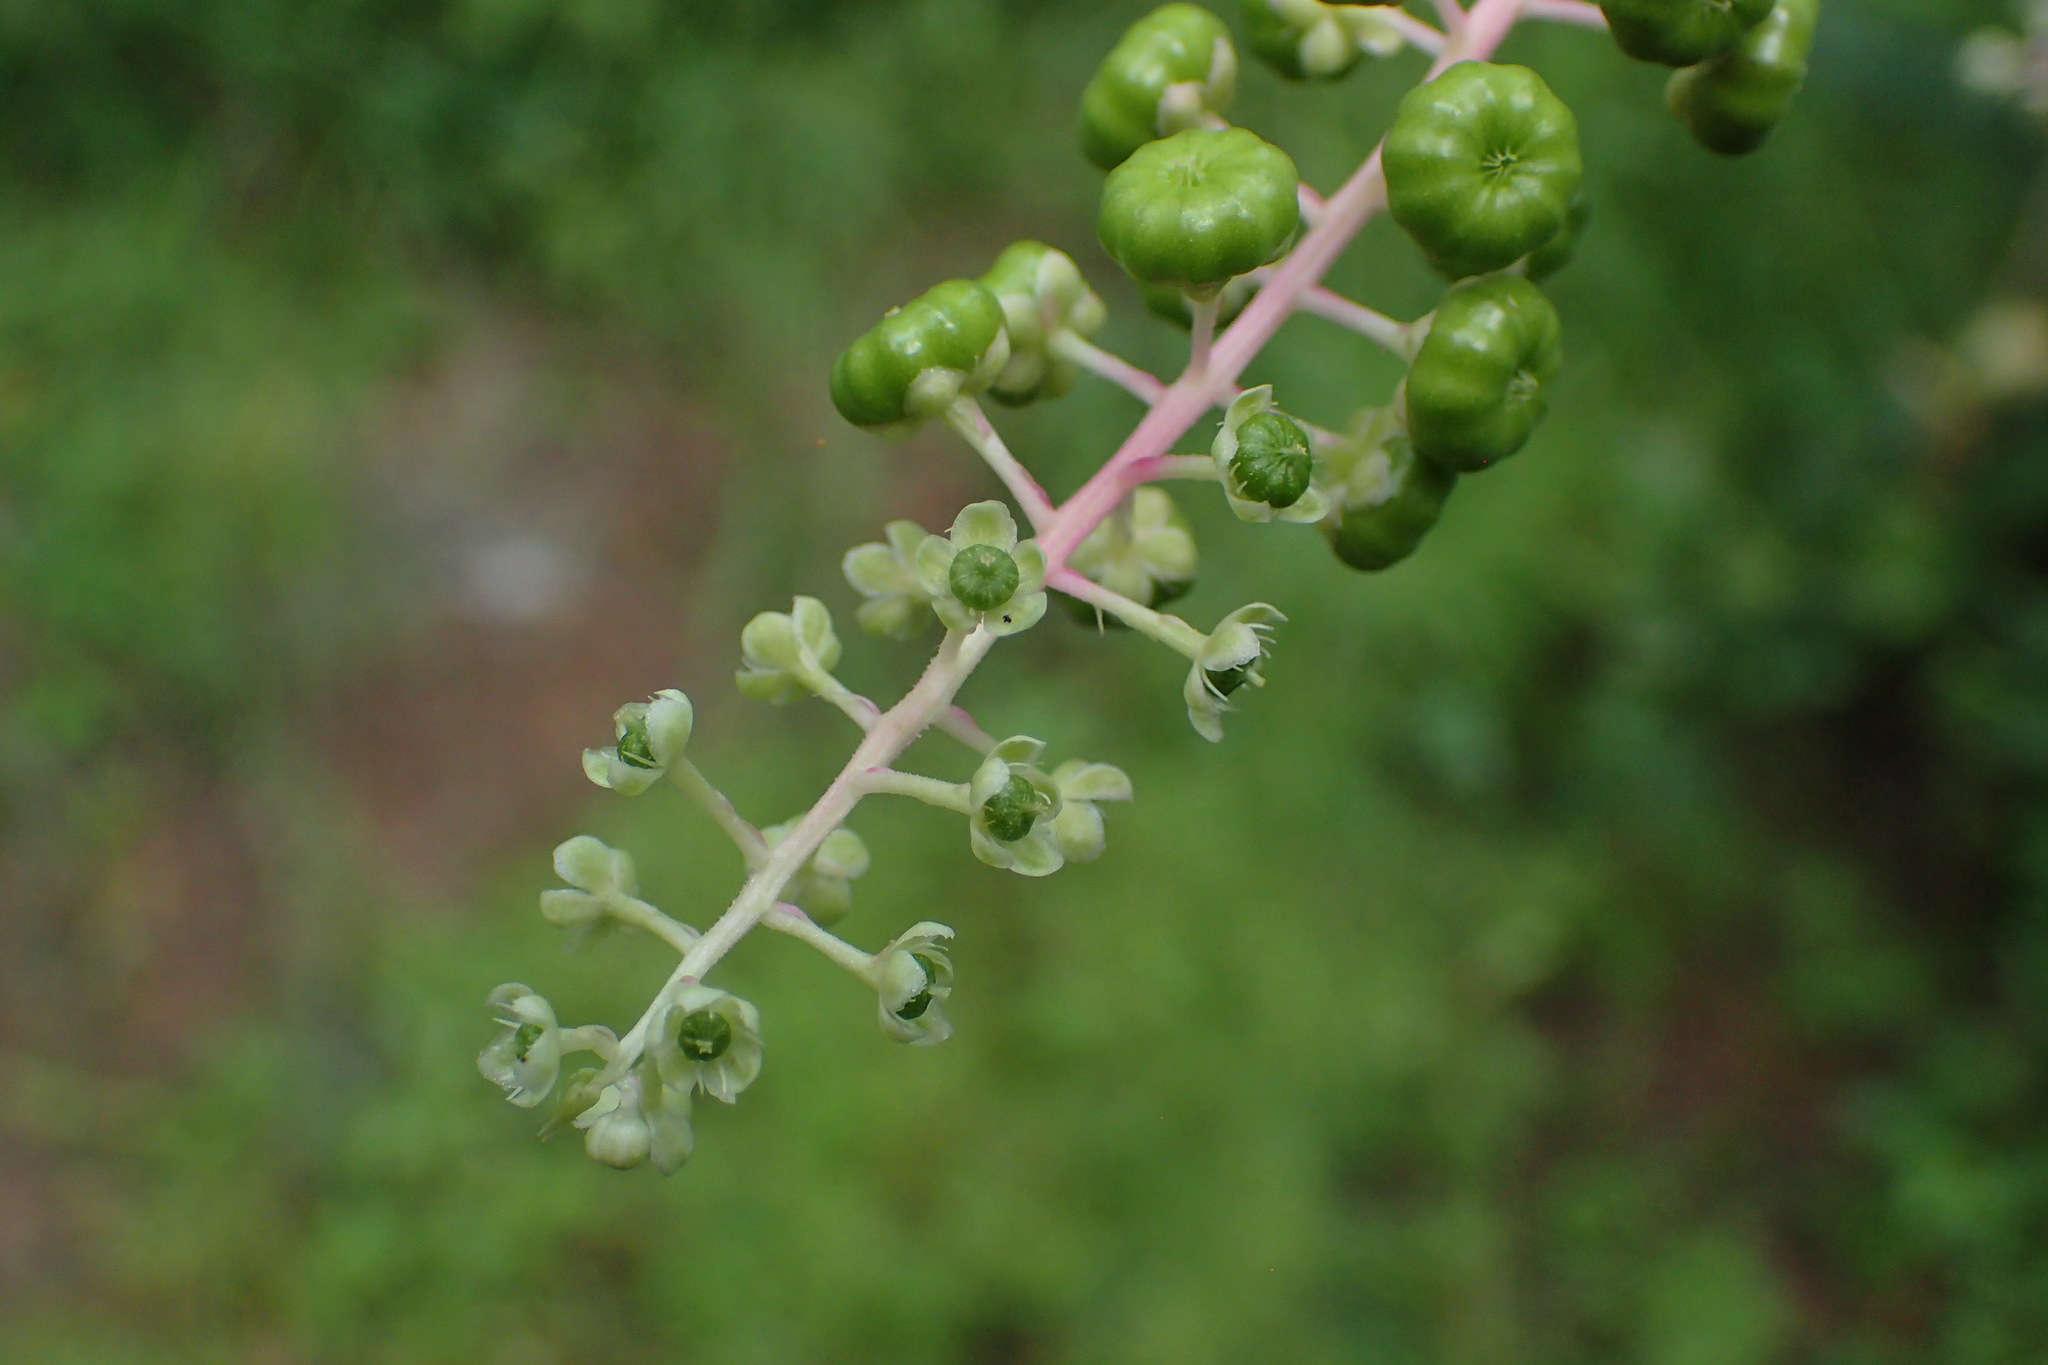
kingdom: Plantae
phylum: Tracheophyta
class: Magnoliopsida
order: Caryophyllales
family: Phytolaccaceae
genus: Phytolacca
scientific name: Phytolacca americana
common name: American pokeweed
